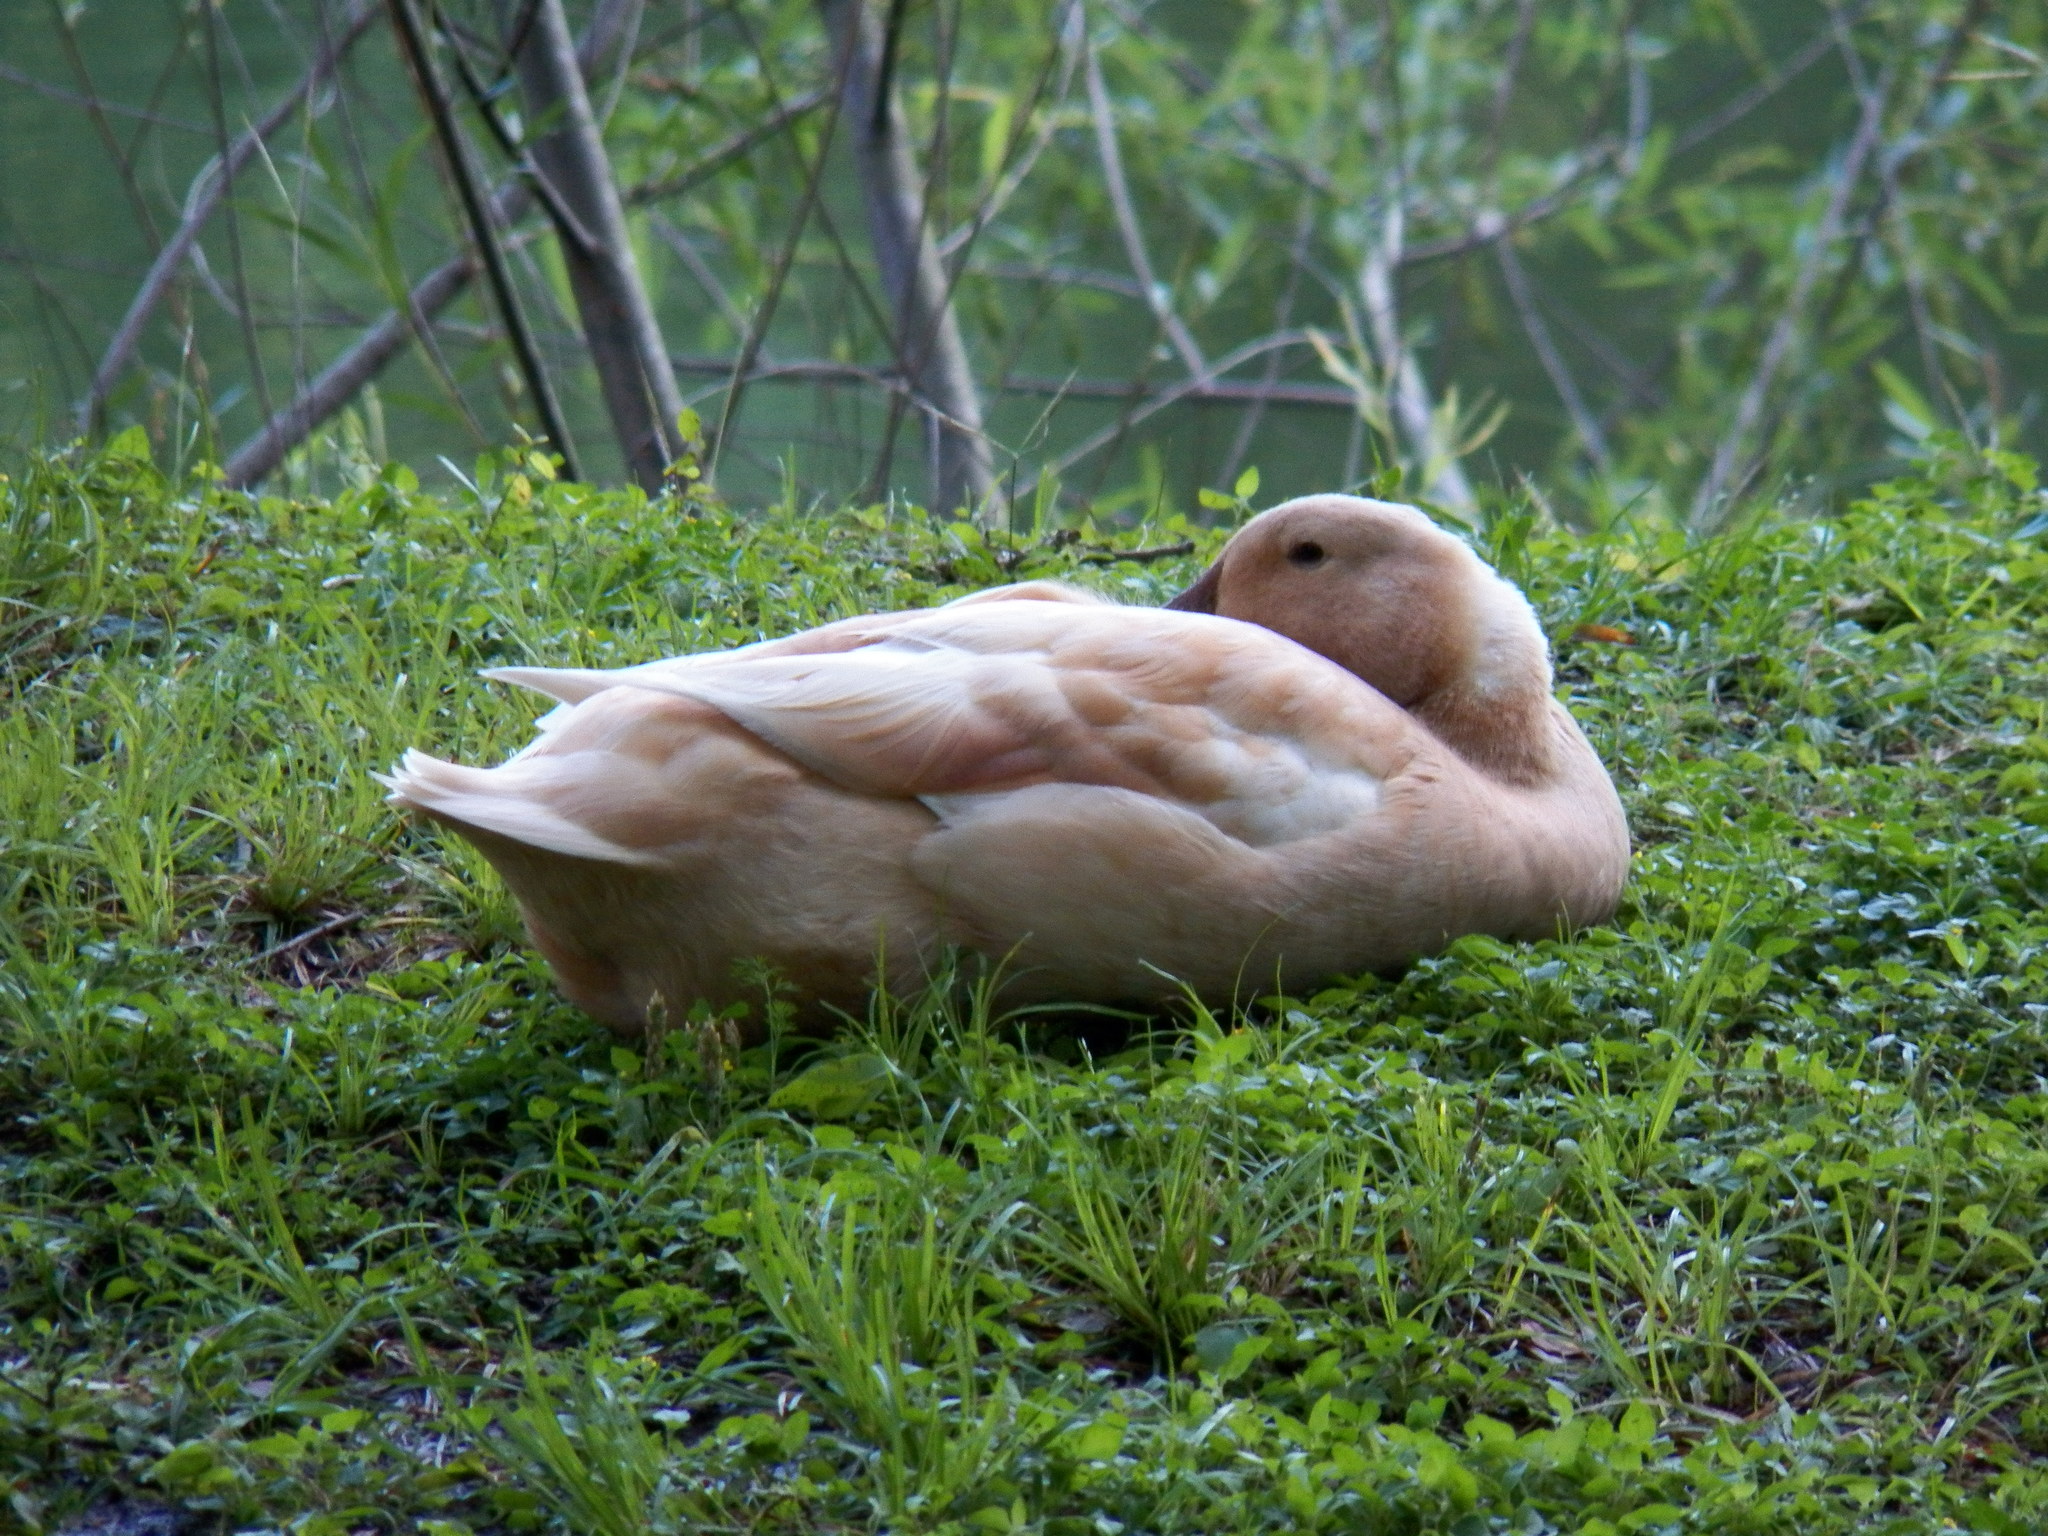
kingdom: Animalia
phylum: Chordata
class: Aves
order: Anseriformes
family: Anatidae
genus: Anas
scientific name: Anas platyrhynchos
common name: Mallard
